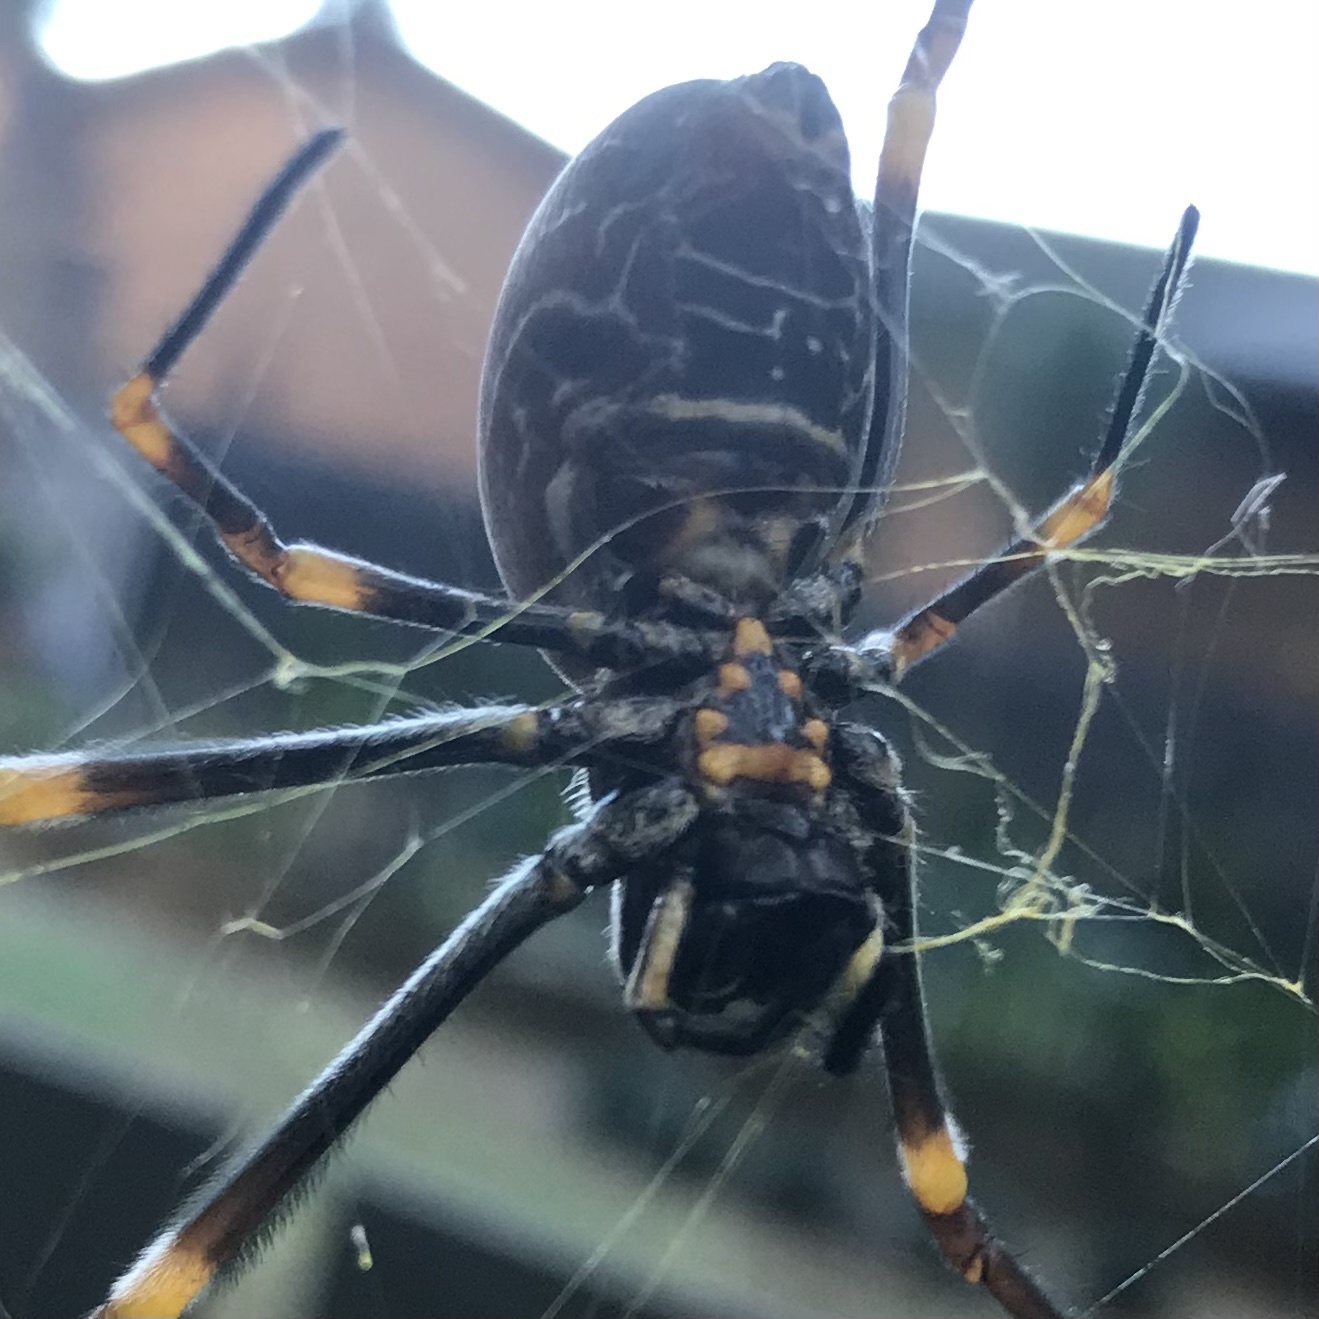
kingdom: Animalia
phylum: Arthropoda
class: Arachnida
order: Araneae
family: Araneidae
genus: Trichonephila
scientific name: Trichonephila plumipes
